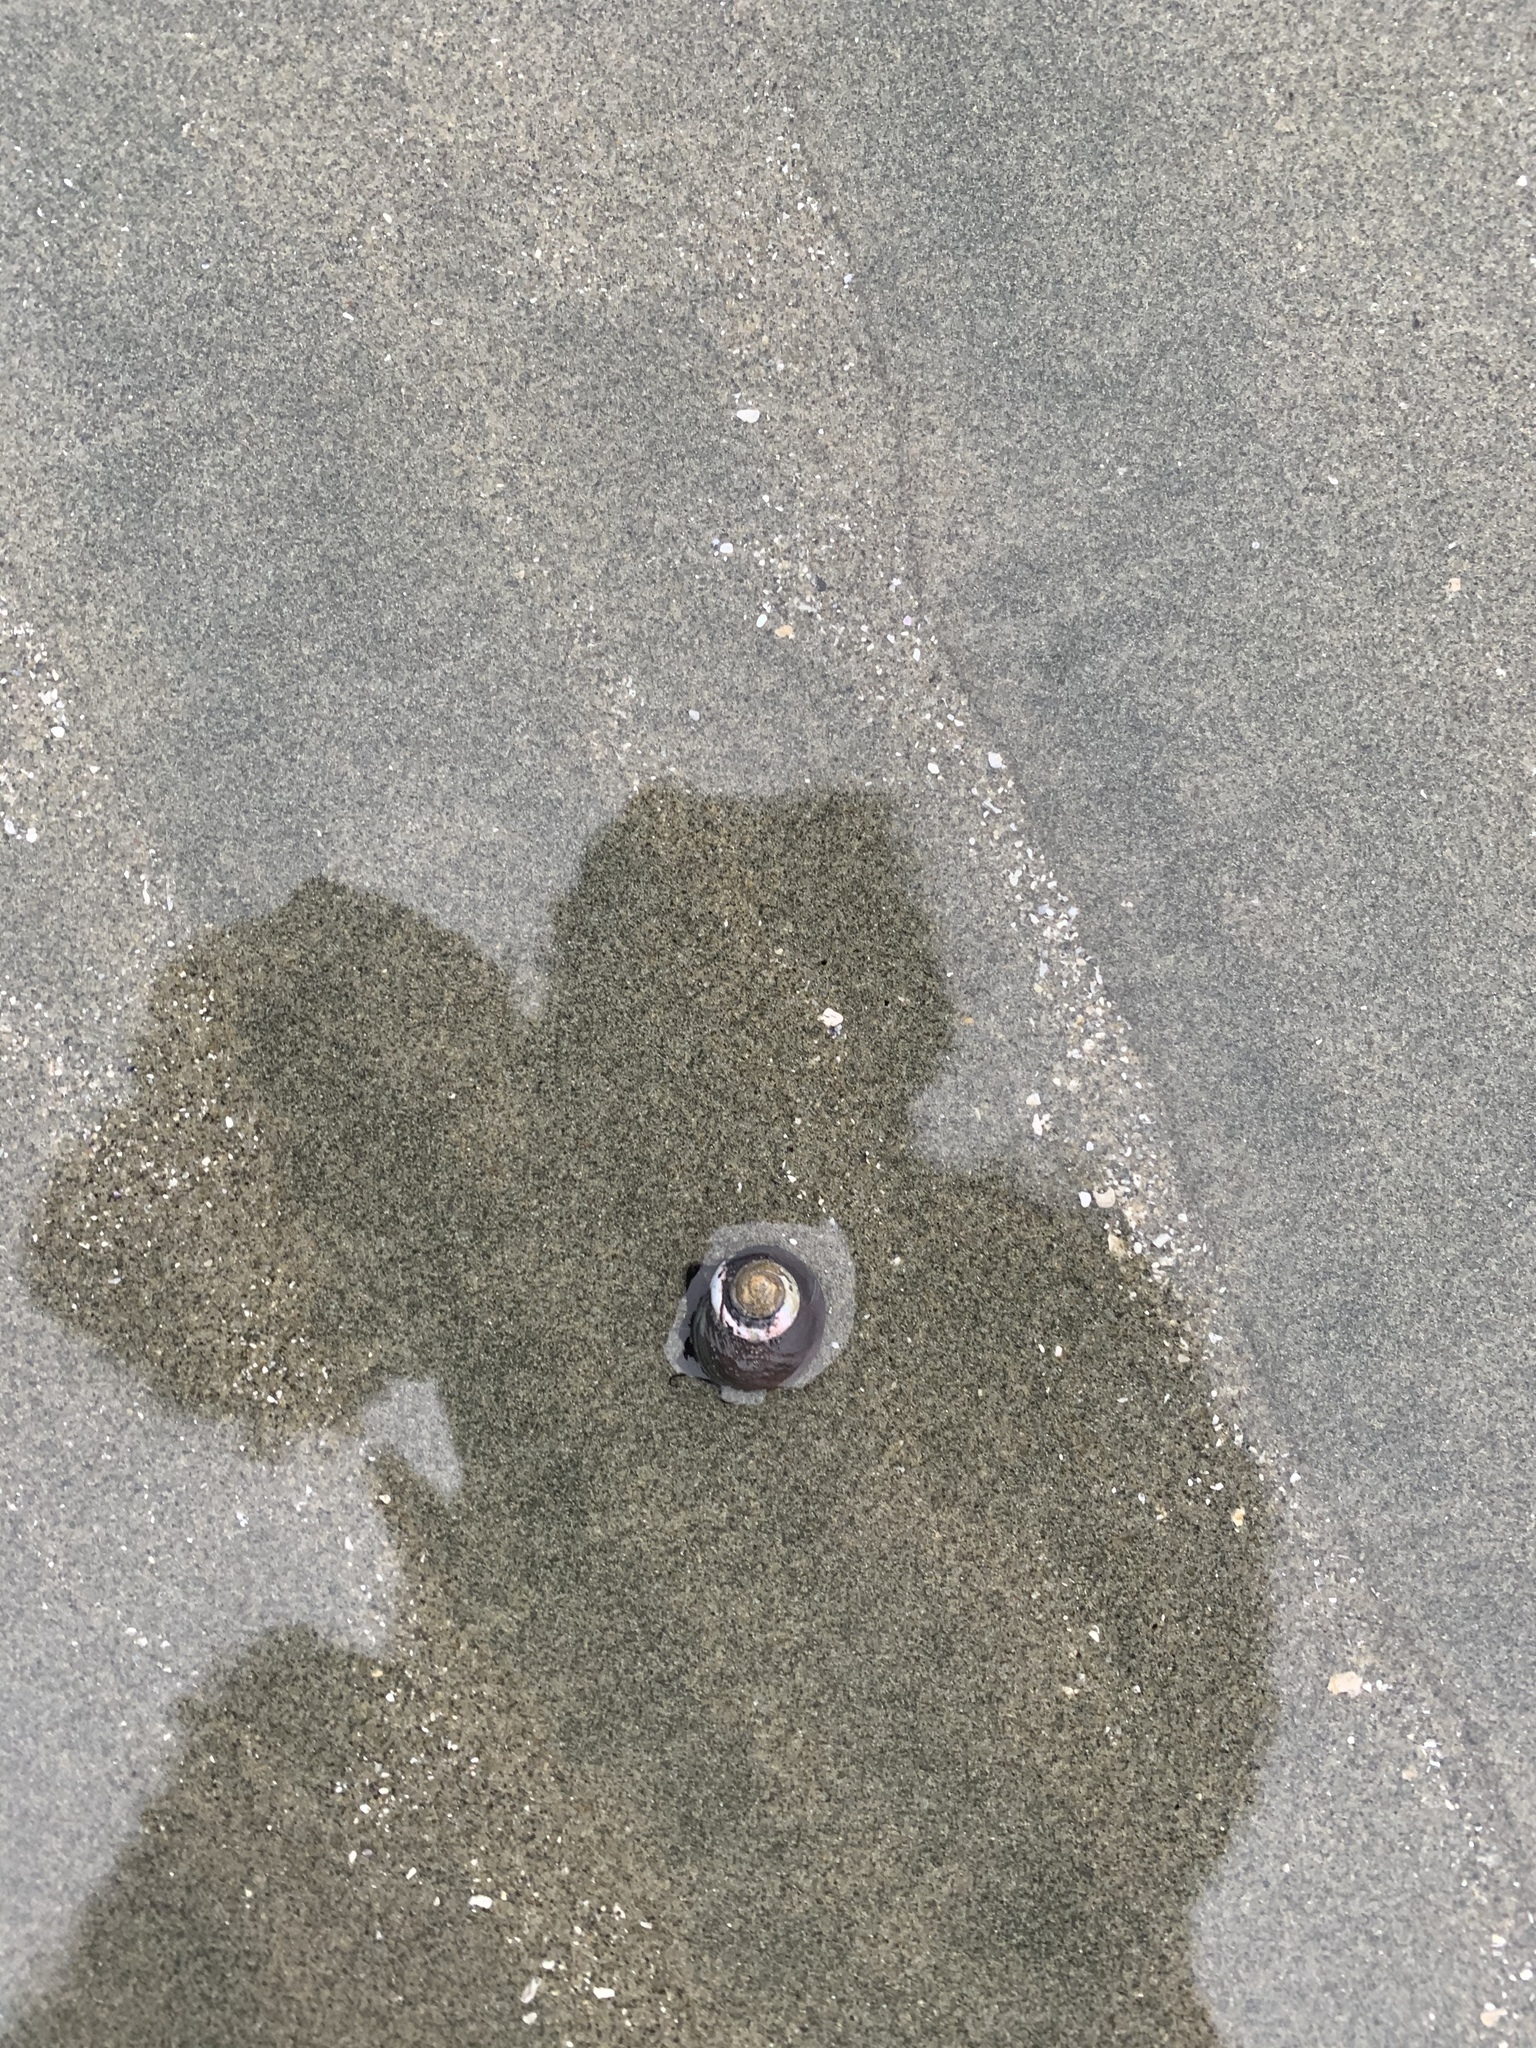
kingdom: Animalia
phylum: Mollusca
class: Gastropoda
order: Trochida
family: Tegulidae
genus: Tegula
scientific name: Tegula funebralis
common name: Black tegula
